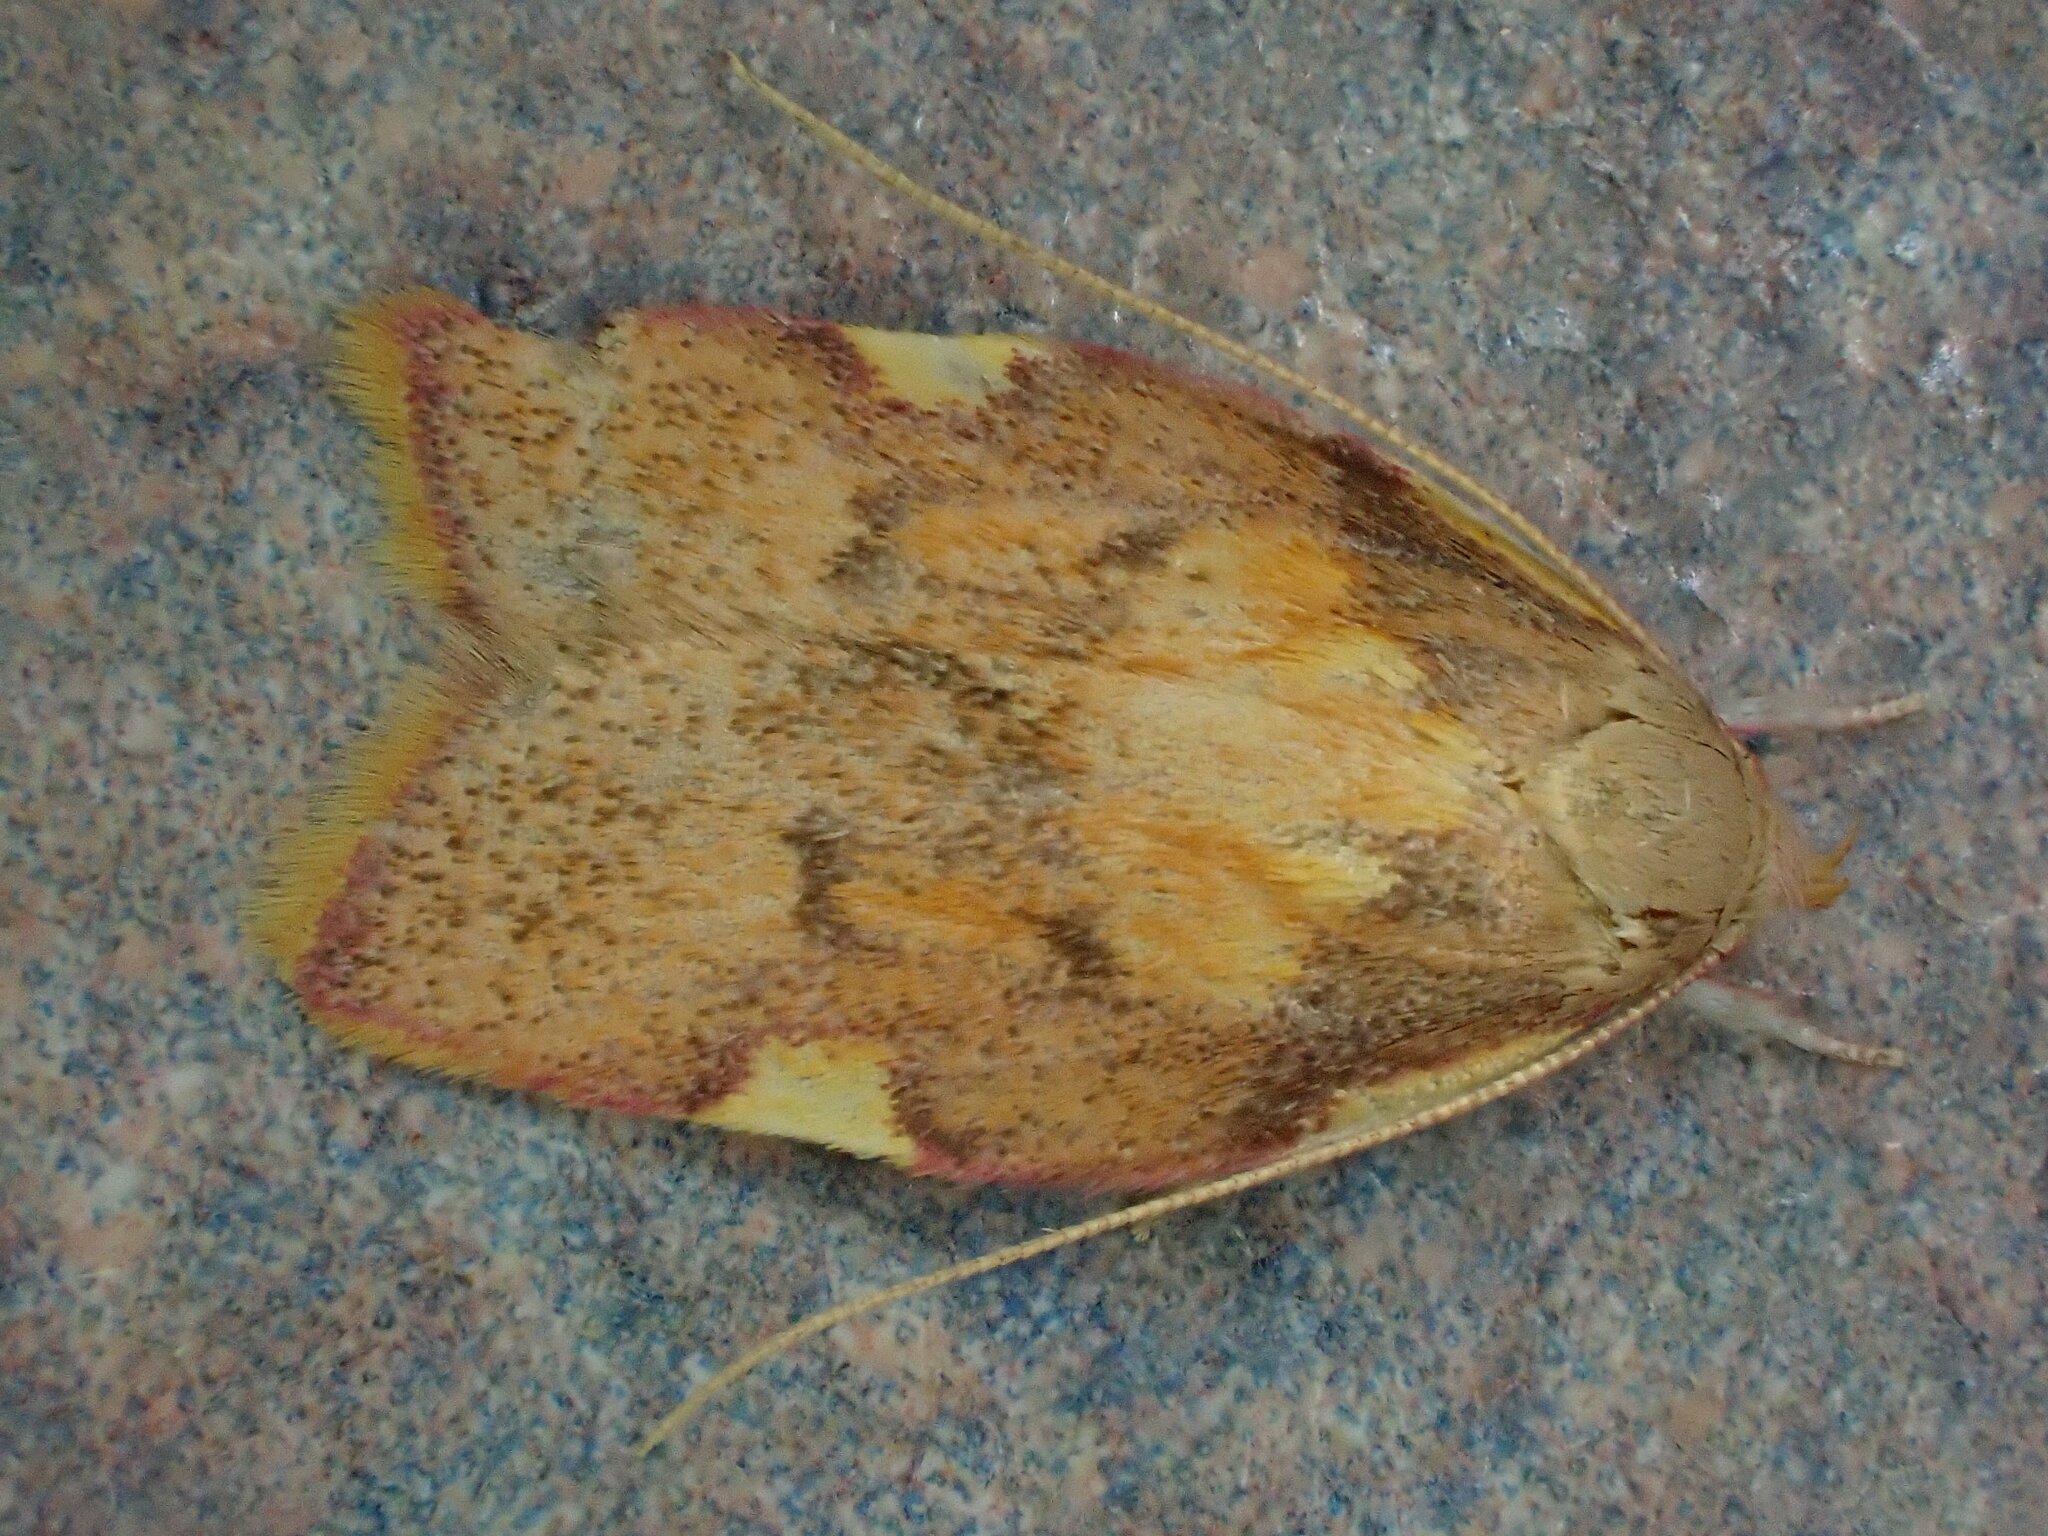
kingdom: Animalia
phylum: Arthropoda
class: Insecta
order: Lepidoptera
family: Peleopodidae
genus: Carcina
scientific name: Carcina quercana
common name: Moth
